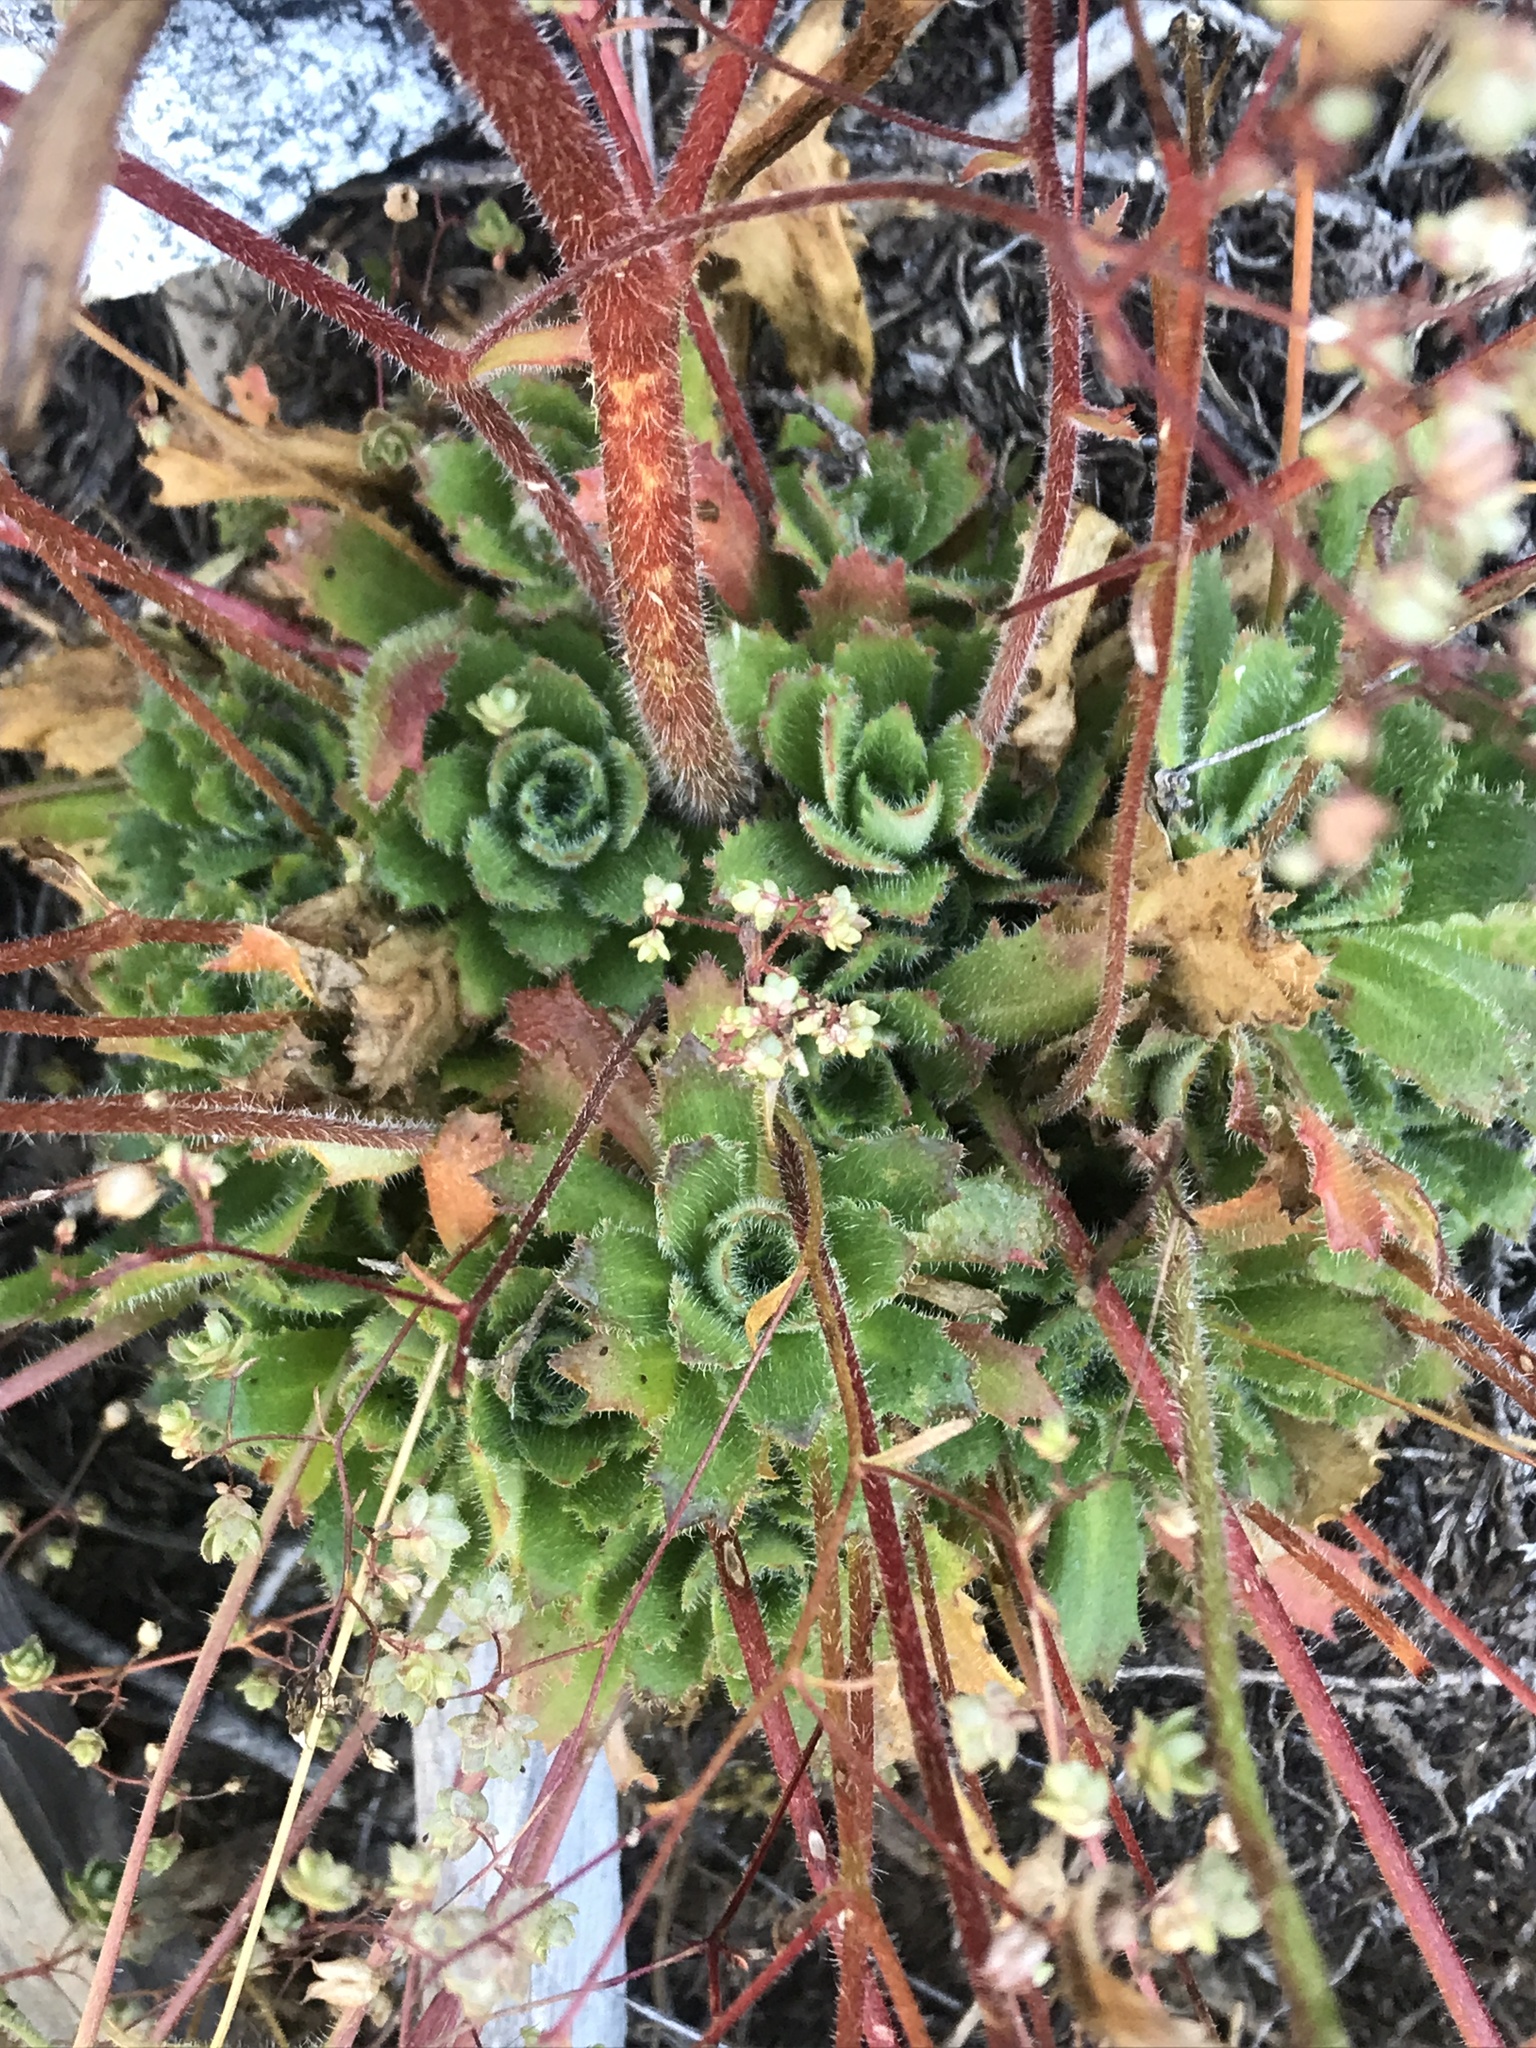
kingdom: Plantae
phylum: Tracheophyta
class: Magnoliopsida
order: Saxifragales
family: Saxifragaceae
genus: Micranthes
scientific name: Micranthes ferruginea
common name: Rusty saxifrage
